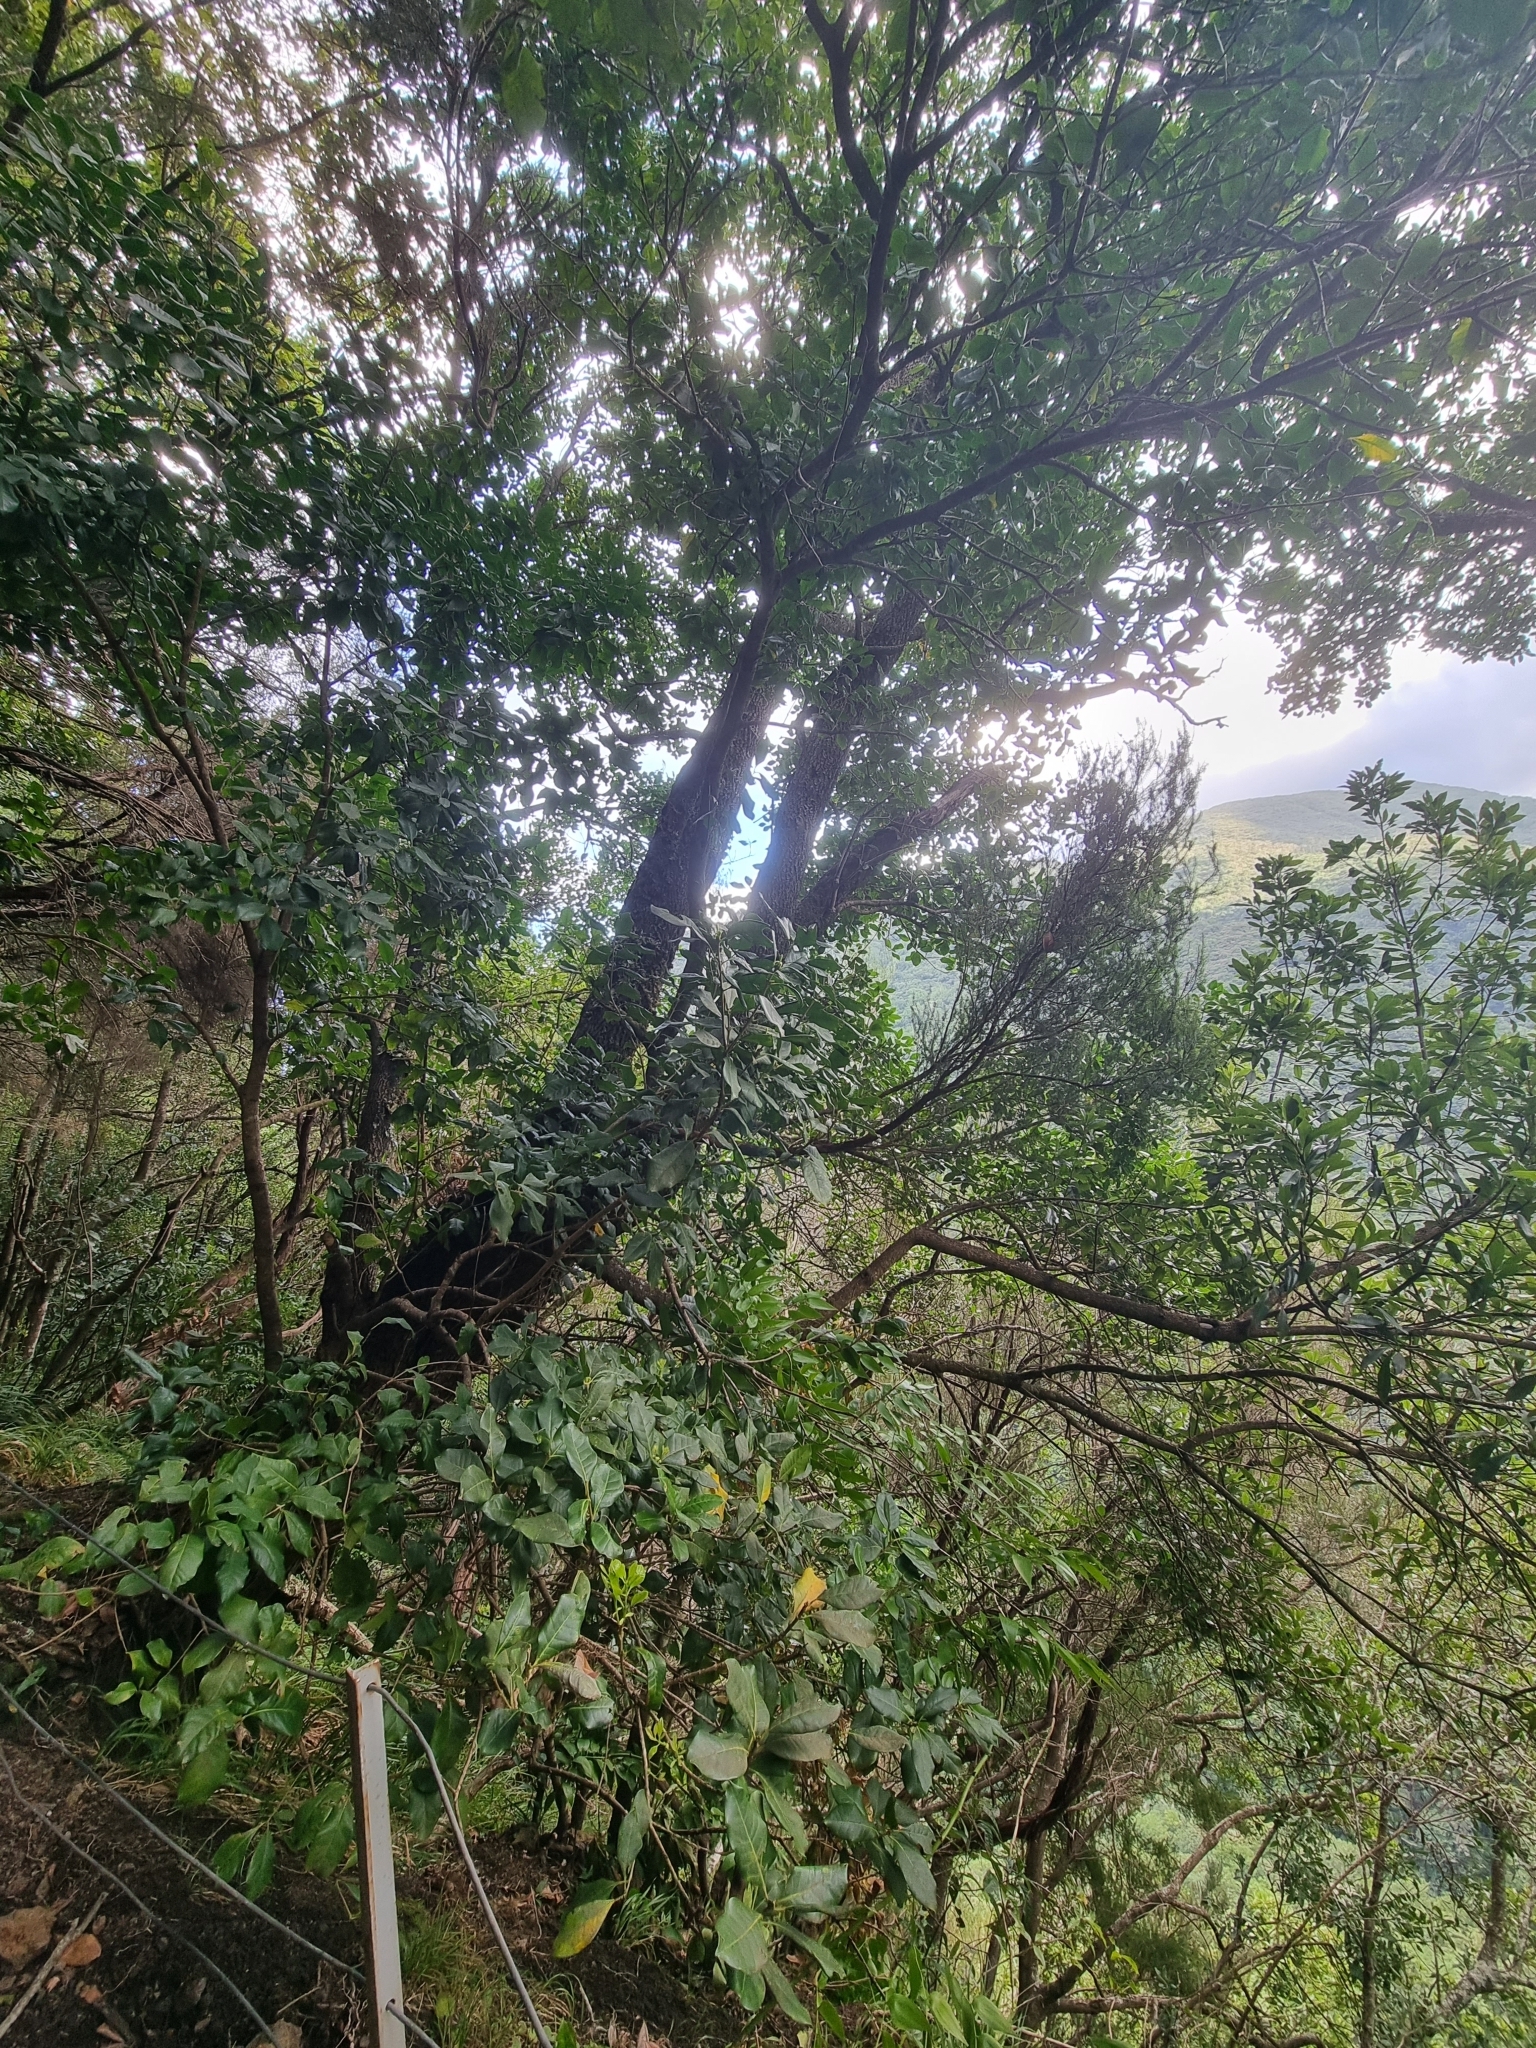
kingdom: Plantae
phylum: Tracheophyta
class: Magnoliopsida
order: Lamiales
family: Oleaceae
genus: Picconia
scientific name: Picconia excelsa
